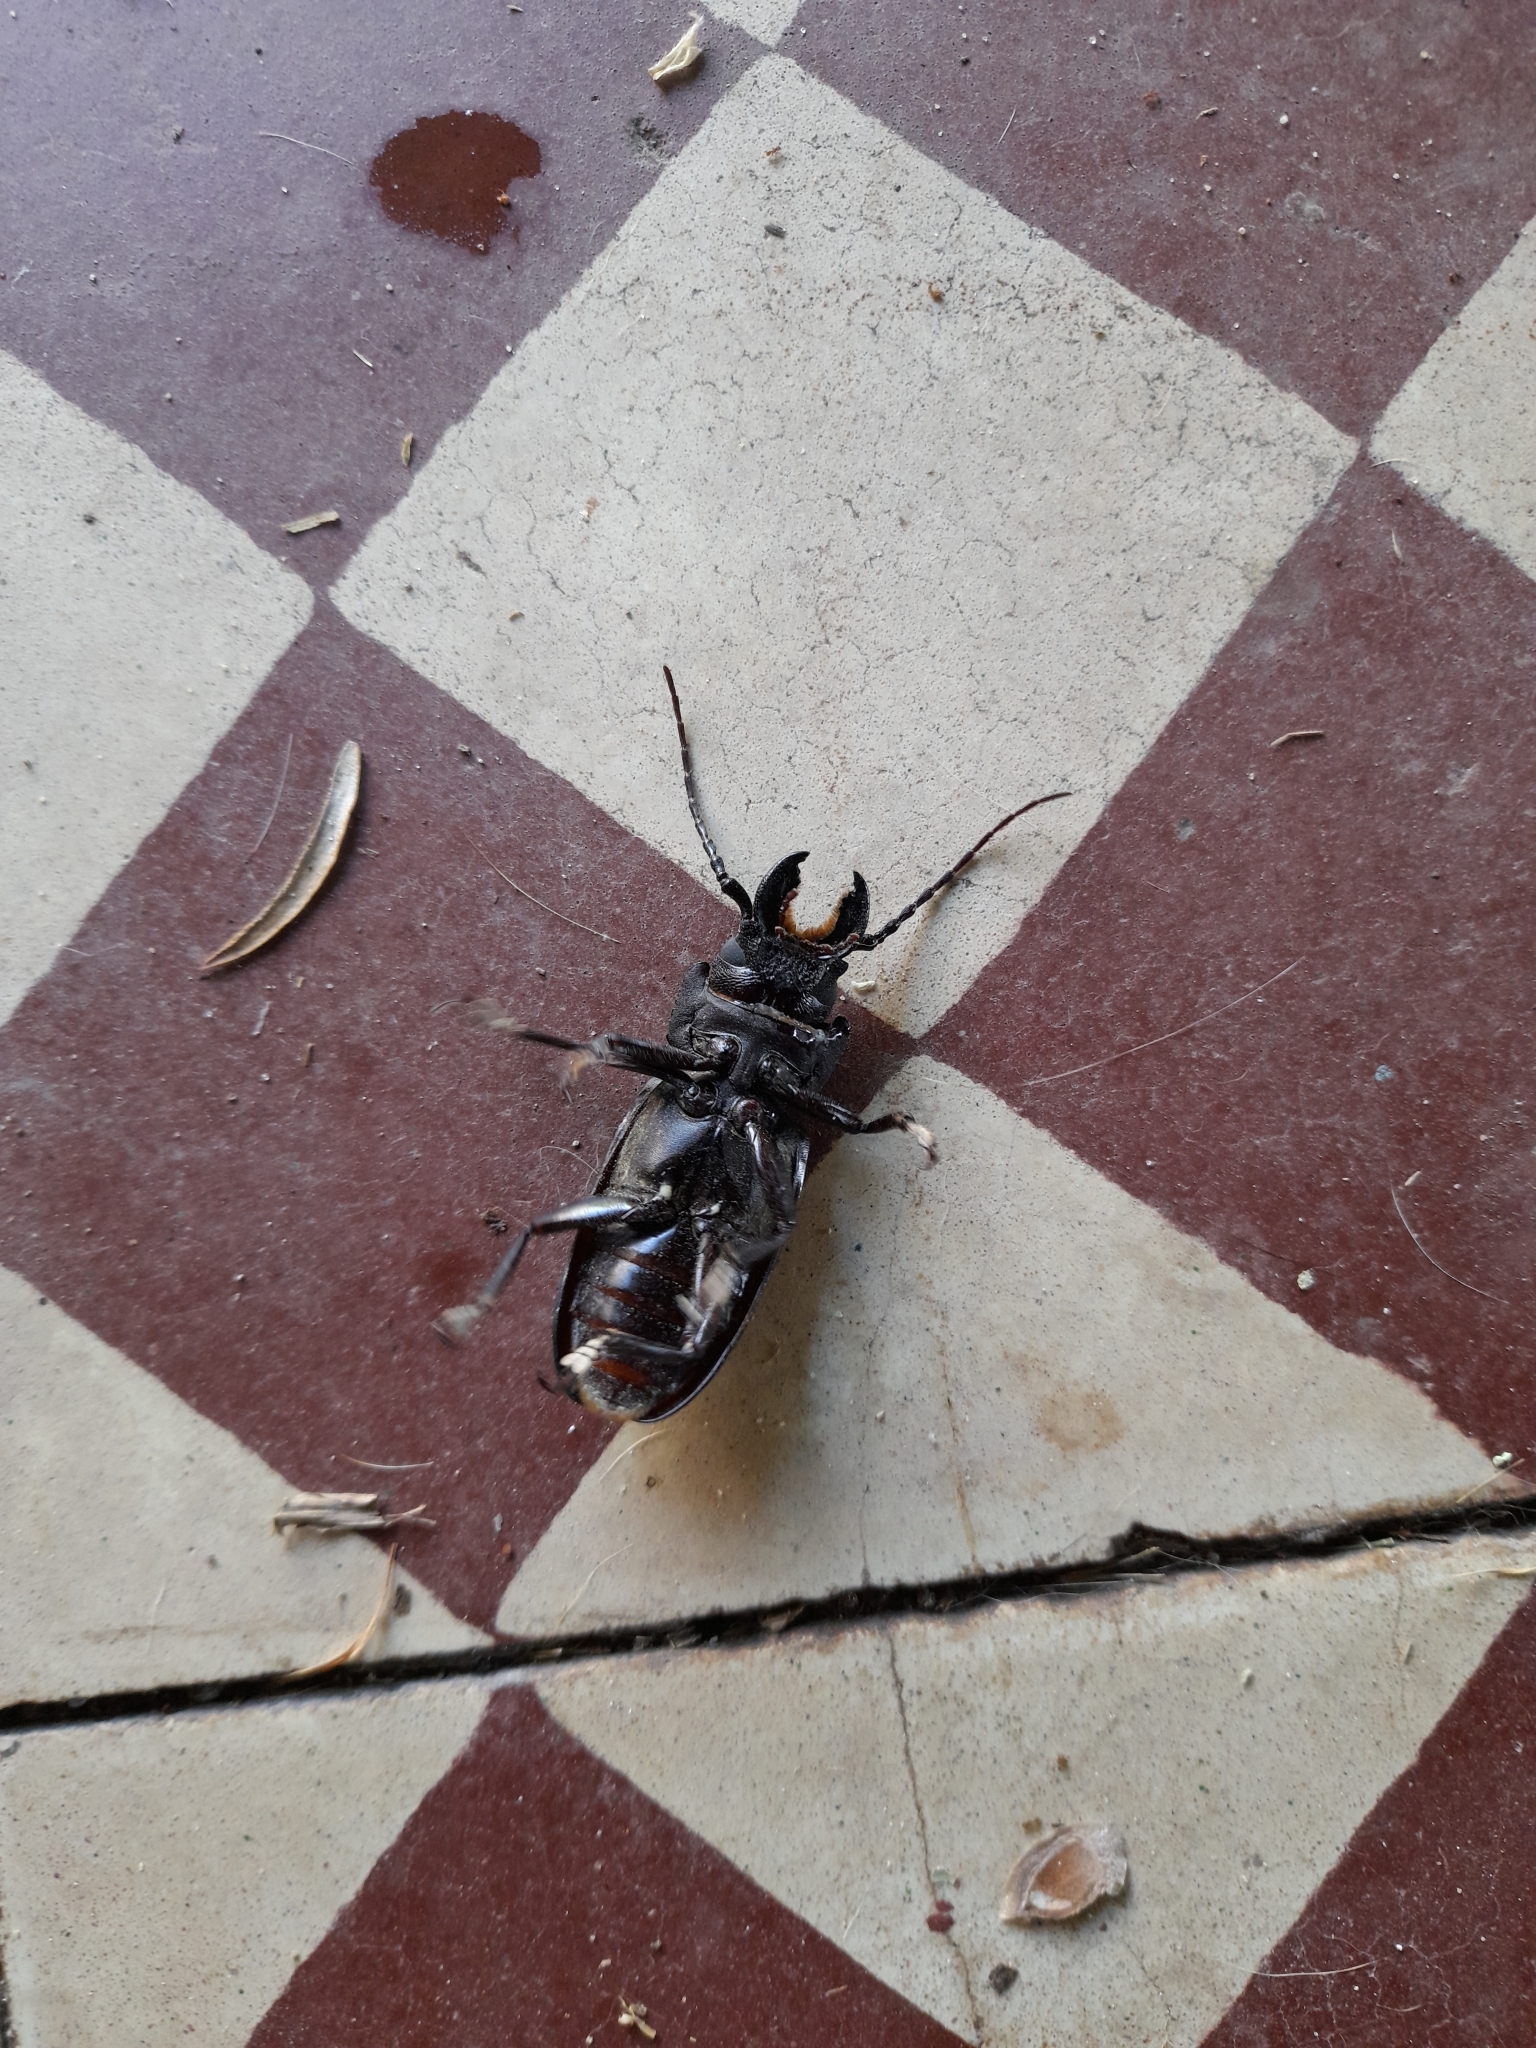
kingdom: Animalia
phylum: Arthropoda
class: Insecta
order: Coleoptera
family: Cerambycidae
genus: Mallodon
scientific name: Mallodon dasystomum
